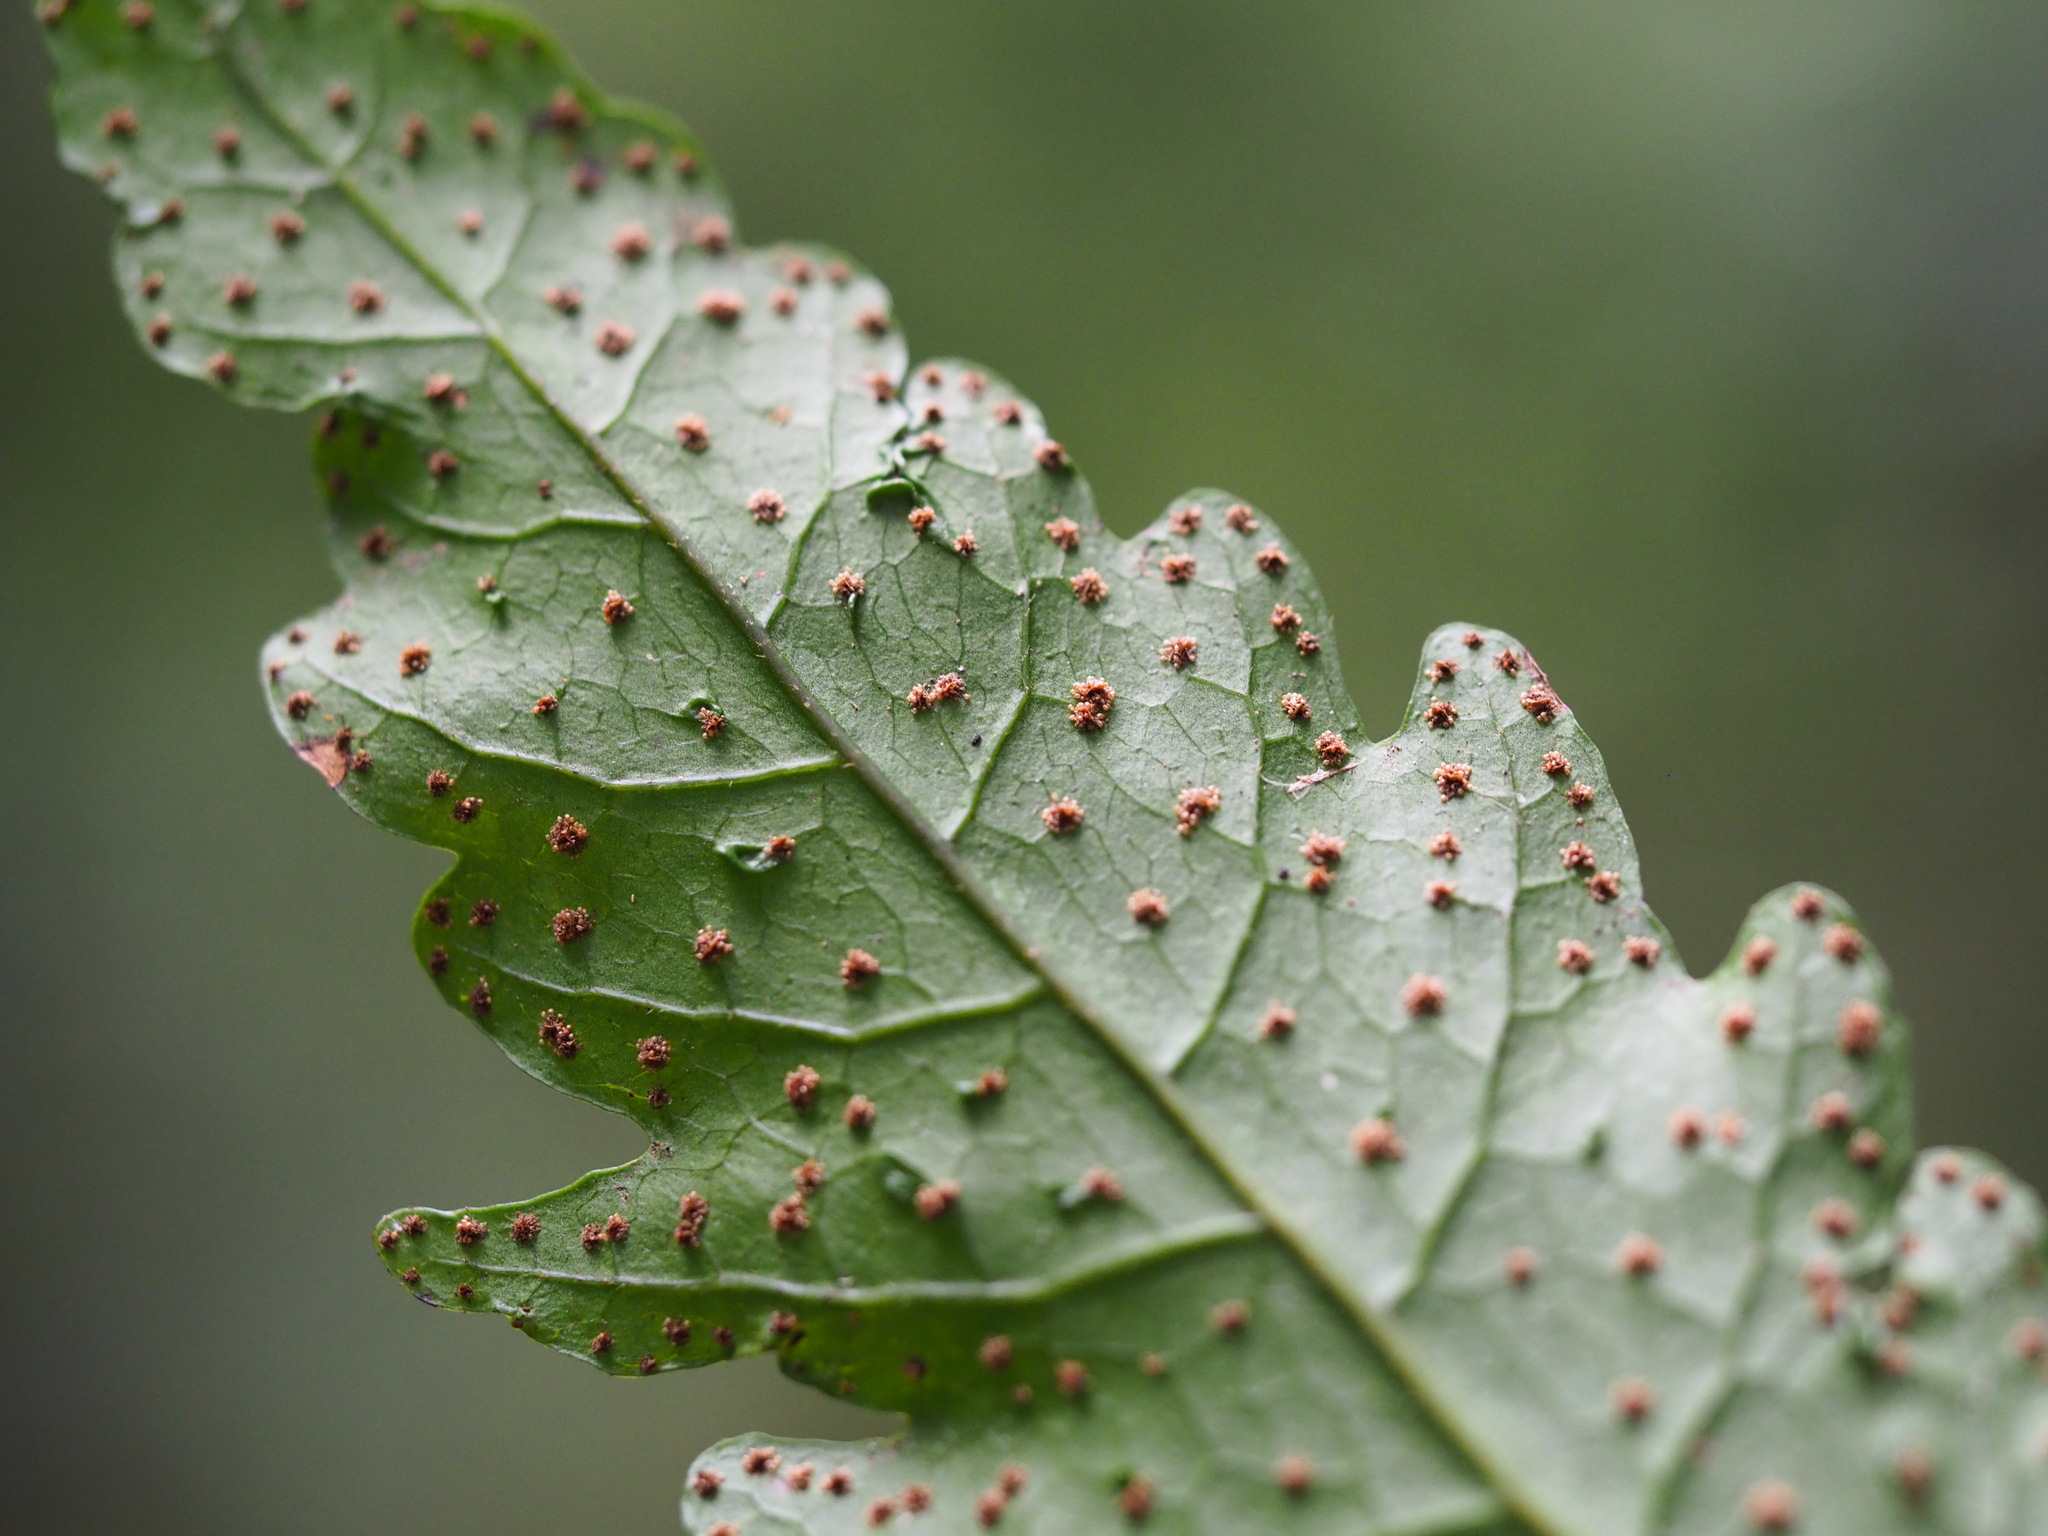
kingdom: Plantae
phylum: Tracheophyta
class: Polypodiopsida
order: Polypodiales
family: Tectariaceae
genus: Tectaria
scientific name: Tectaria subtriphylla
